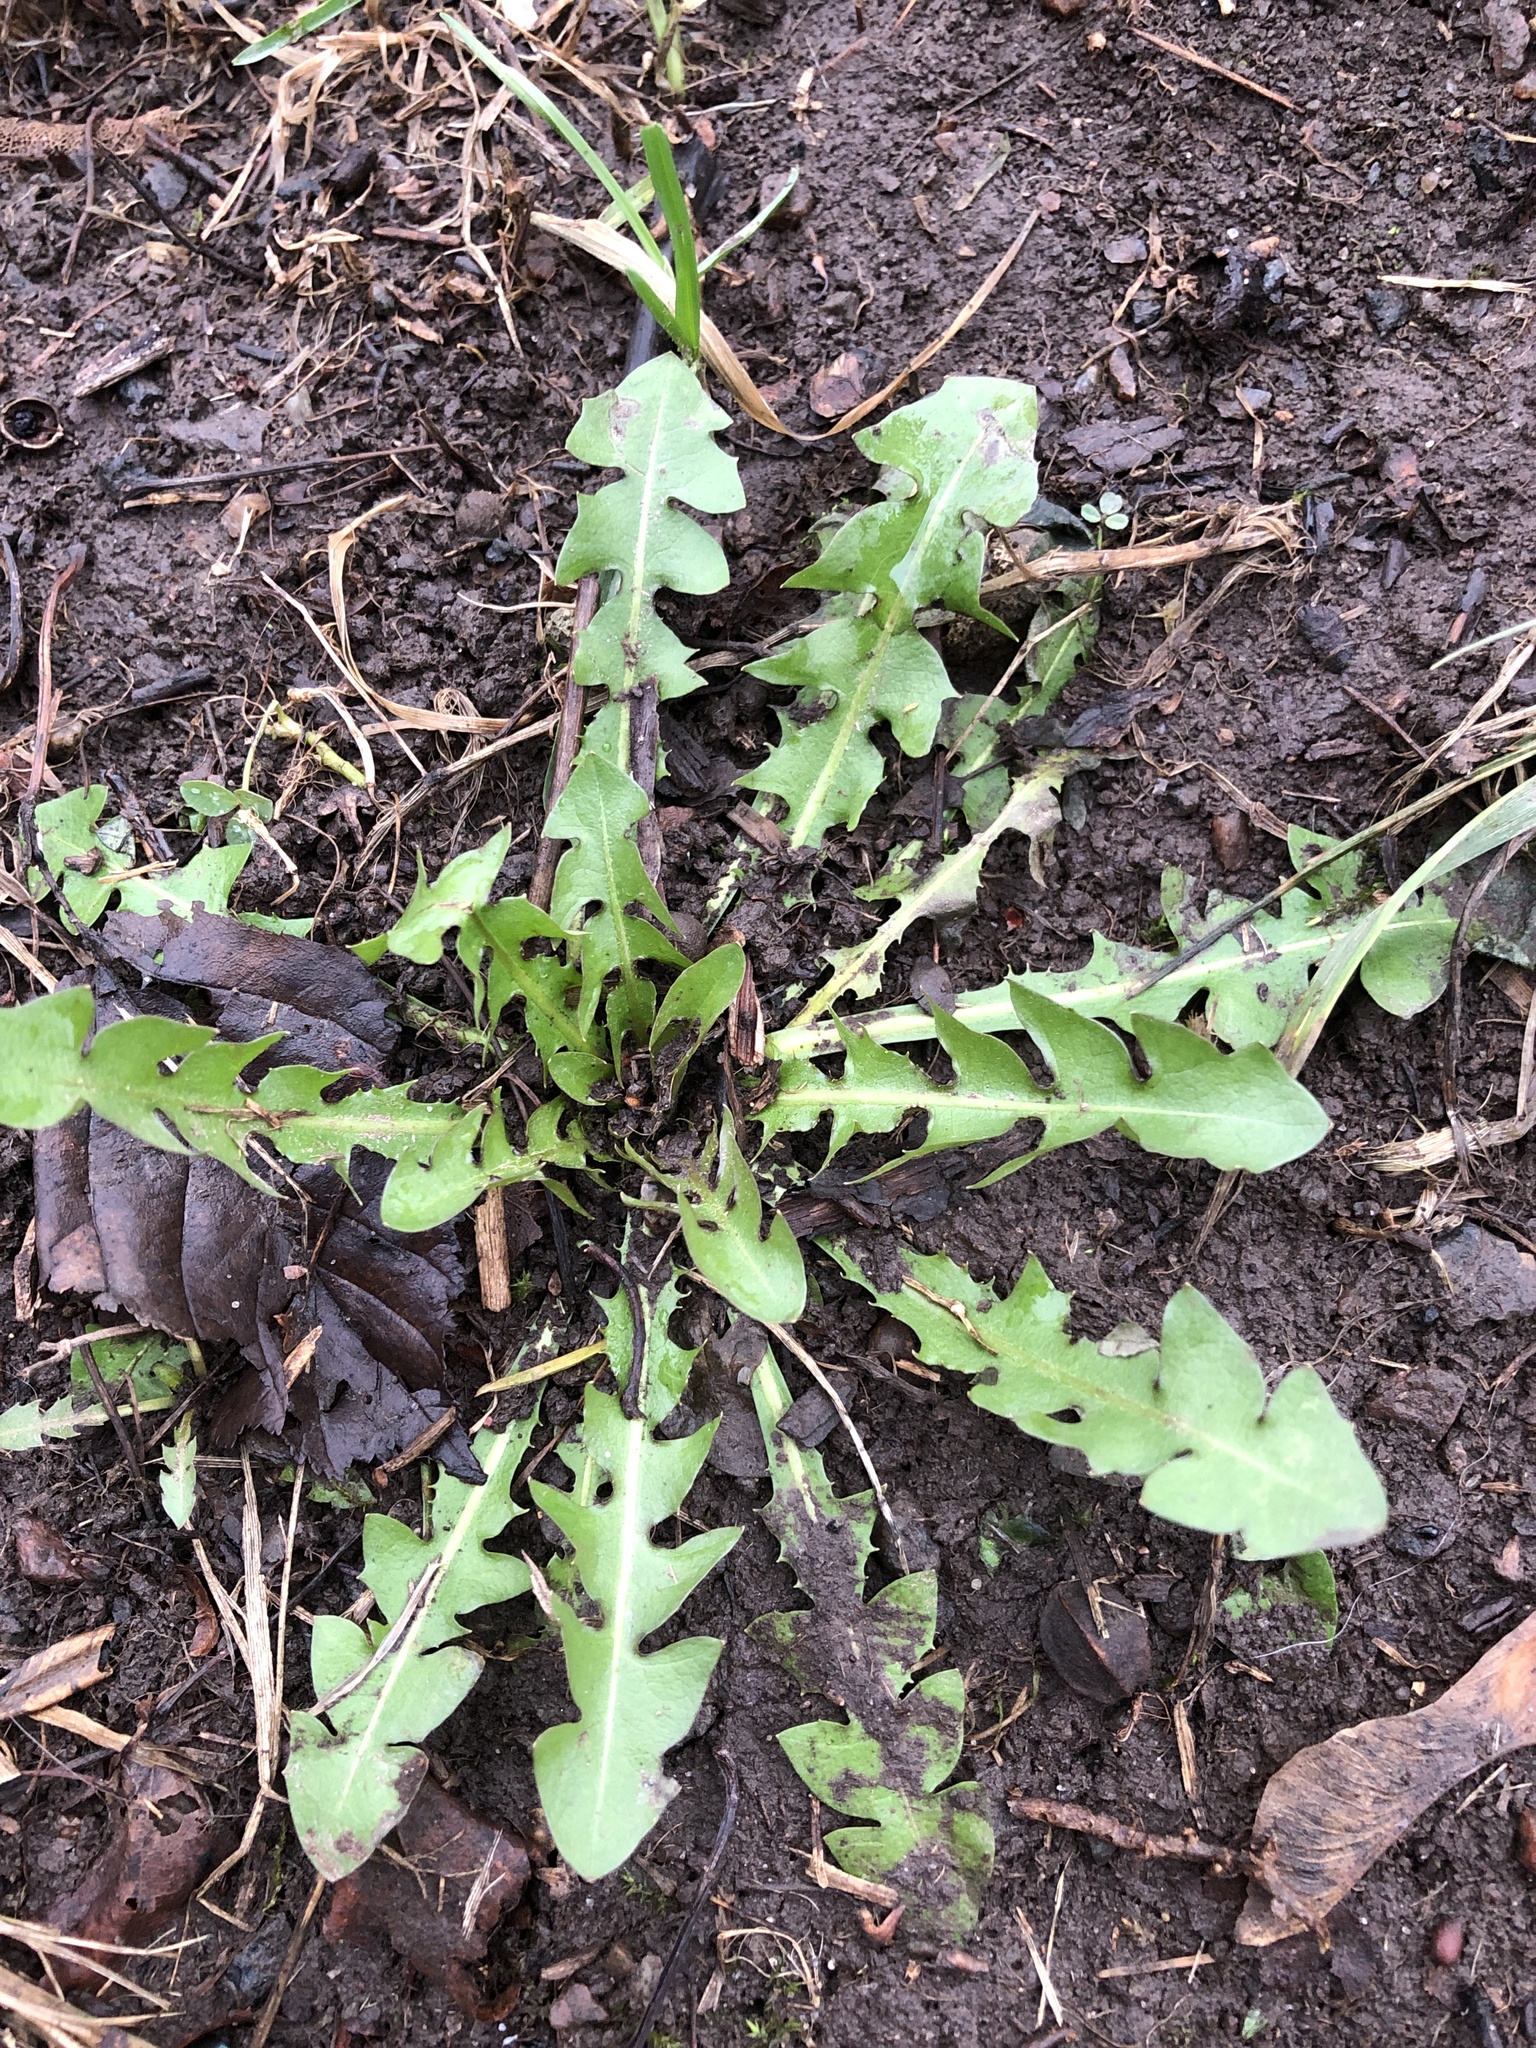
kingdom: Plantae
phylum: Tracheophyta
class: Magnoliopsida
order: Asterales
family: Asteraceae
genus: Taraxacum
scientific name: Taraxacum officinale
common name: Common dandelion
